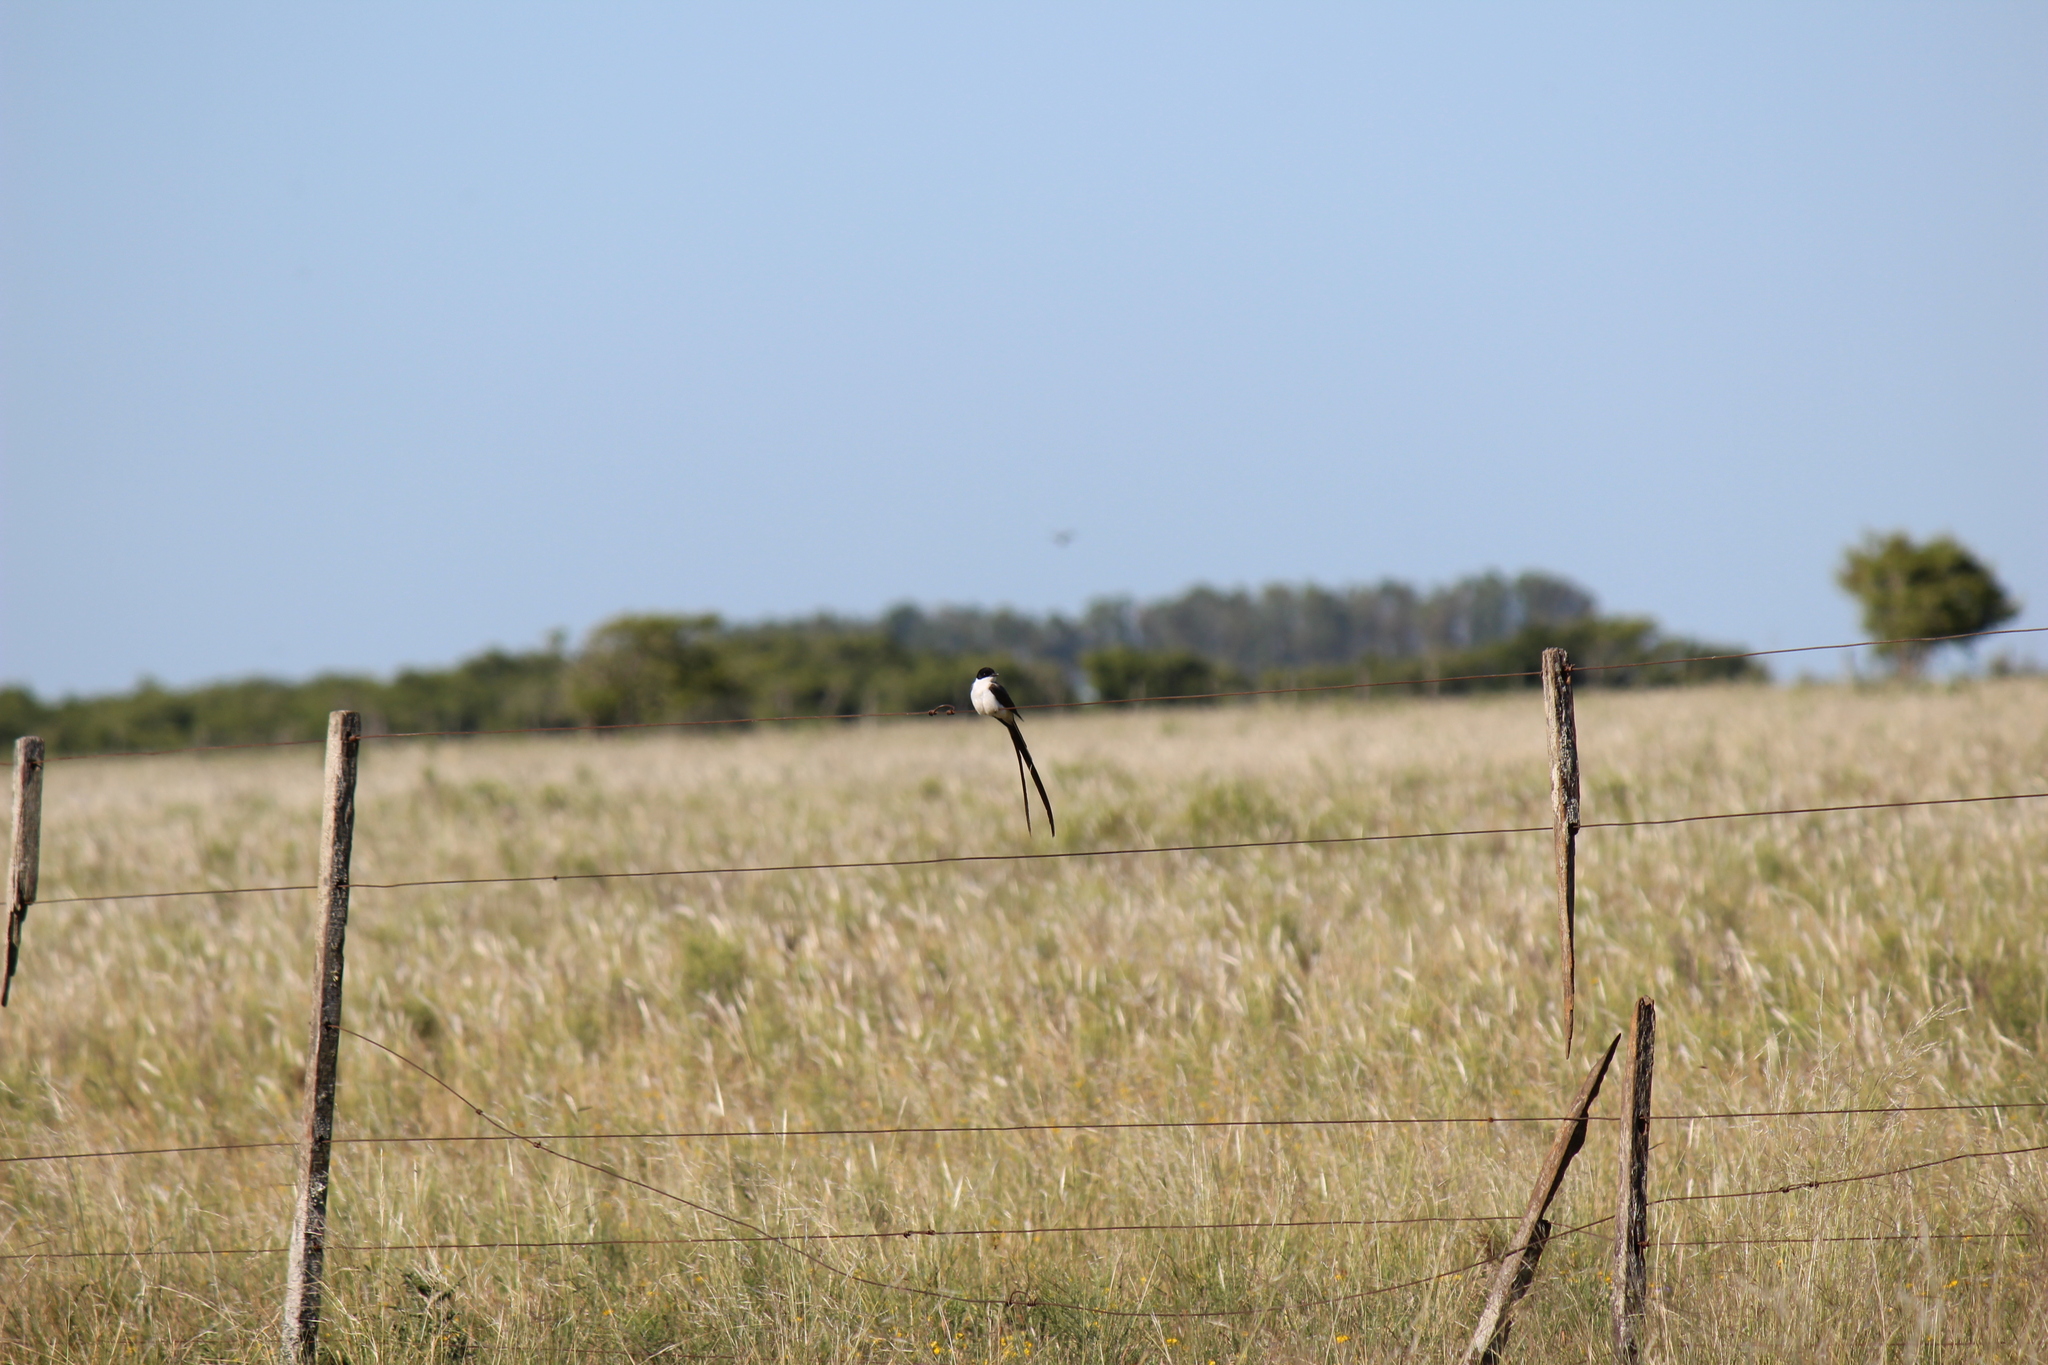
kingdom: Animalia
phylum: Chordata
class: Aves
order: Passeriformes
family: Tyrannidae
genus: Tyrannus
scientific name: Tyrannus savana
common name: Fork-tailed flycatcher
